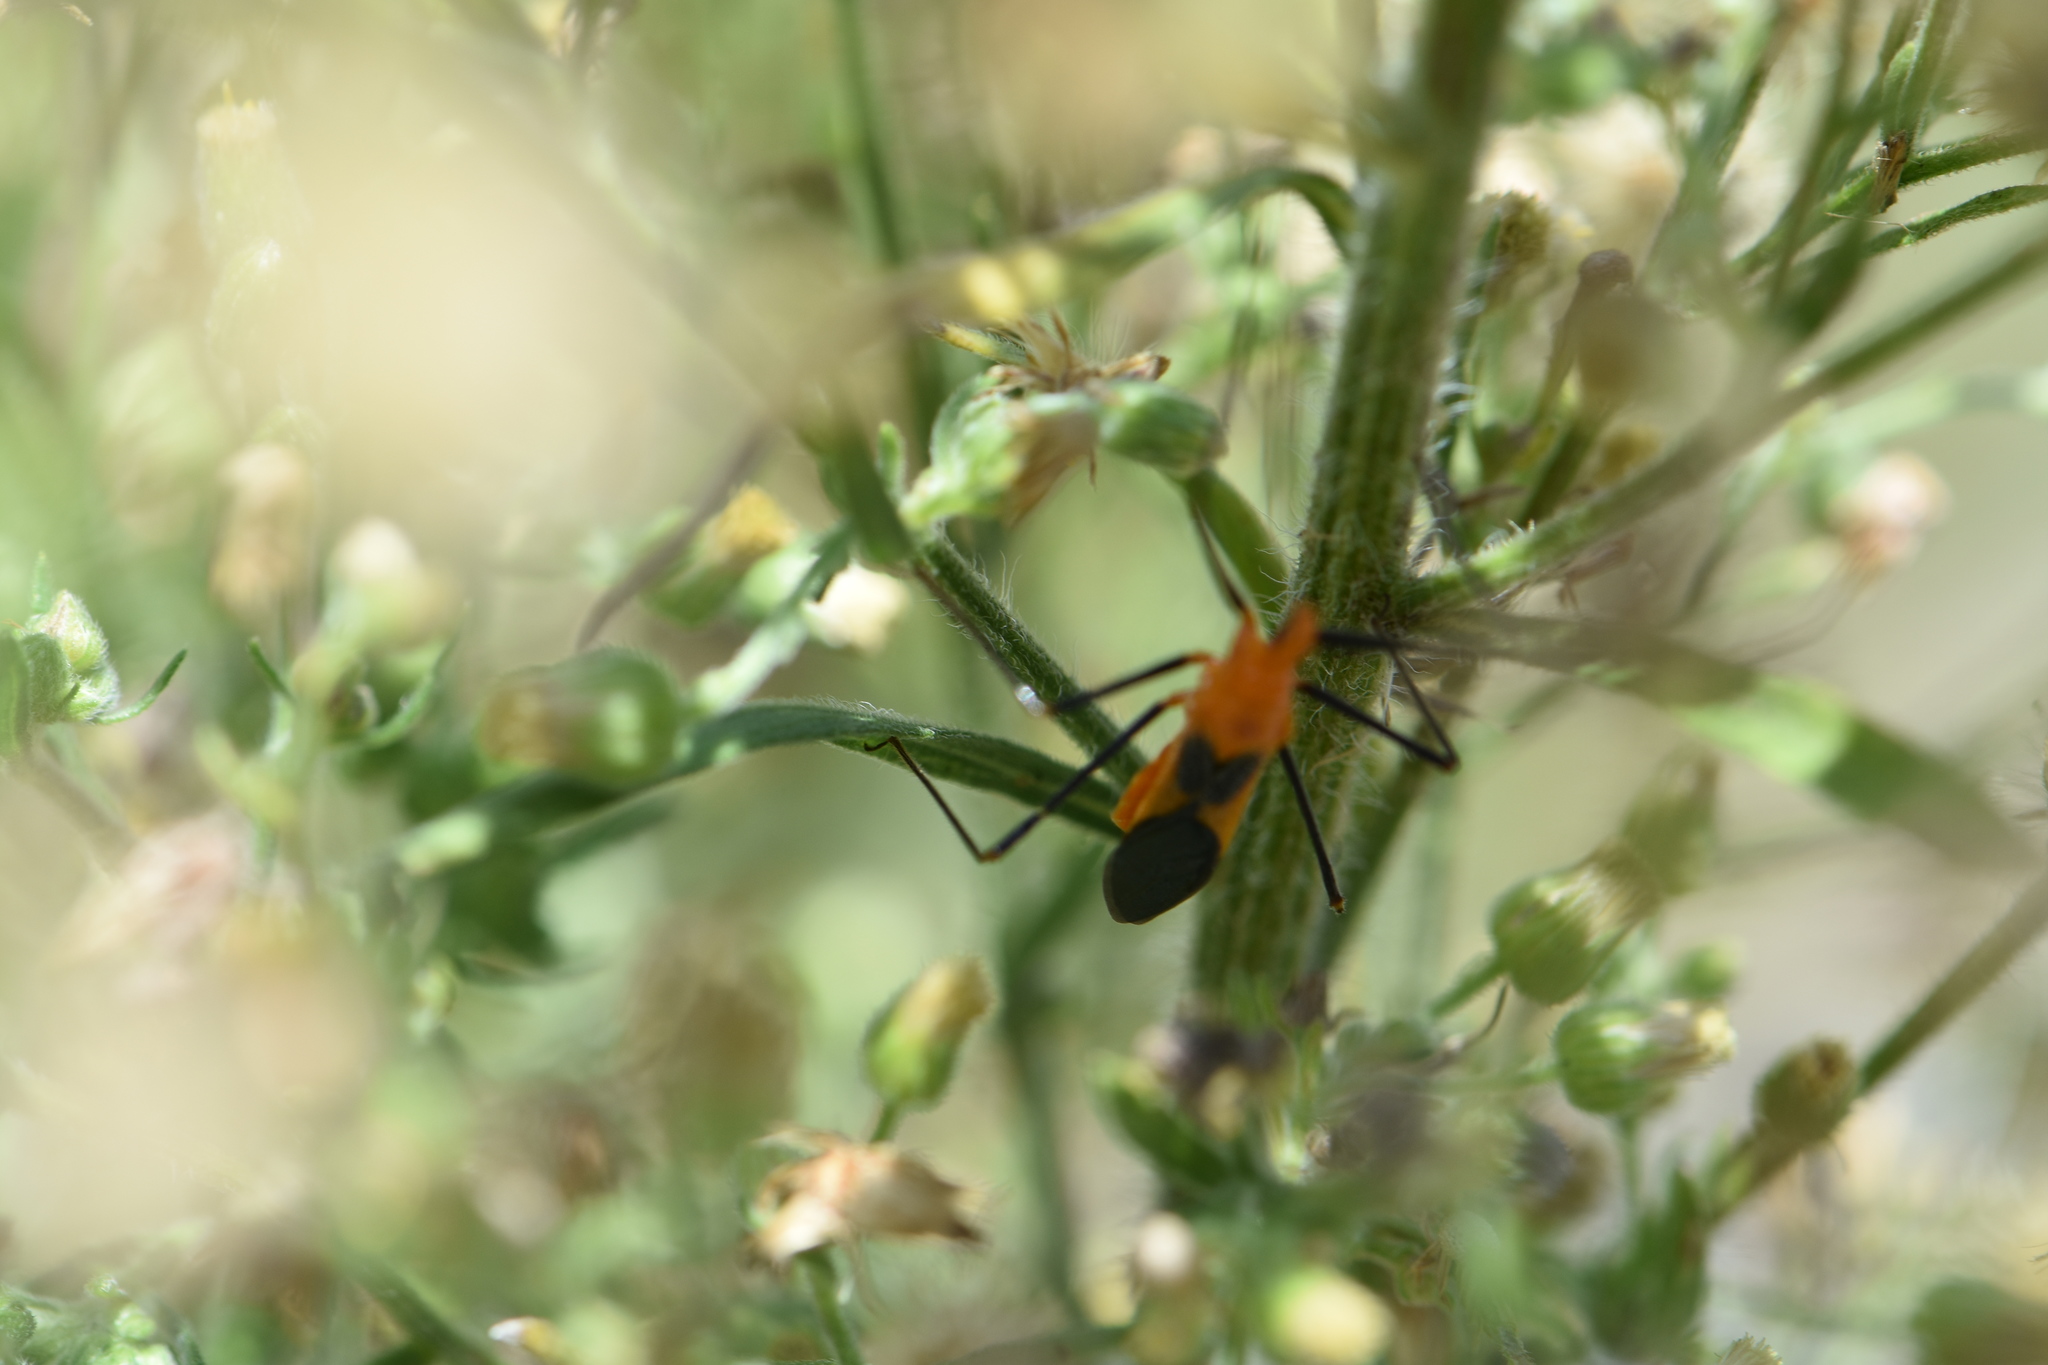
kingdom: Animalia
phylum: Arthropoda
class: Insecta
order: Hemiptera
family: Reduviidae
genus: Zelus
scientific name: Zelus longipes
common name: Milkweed assassin bug
